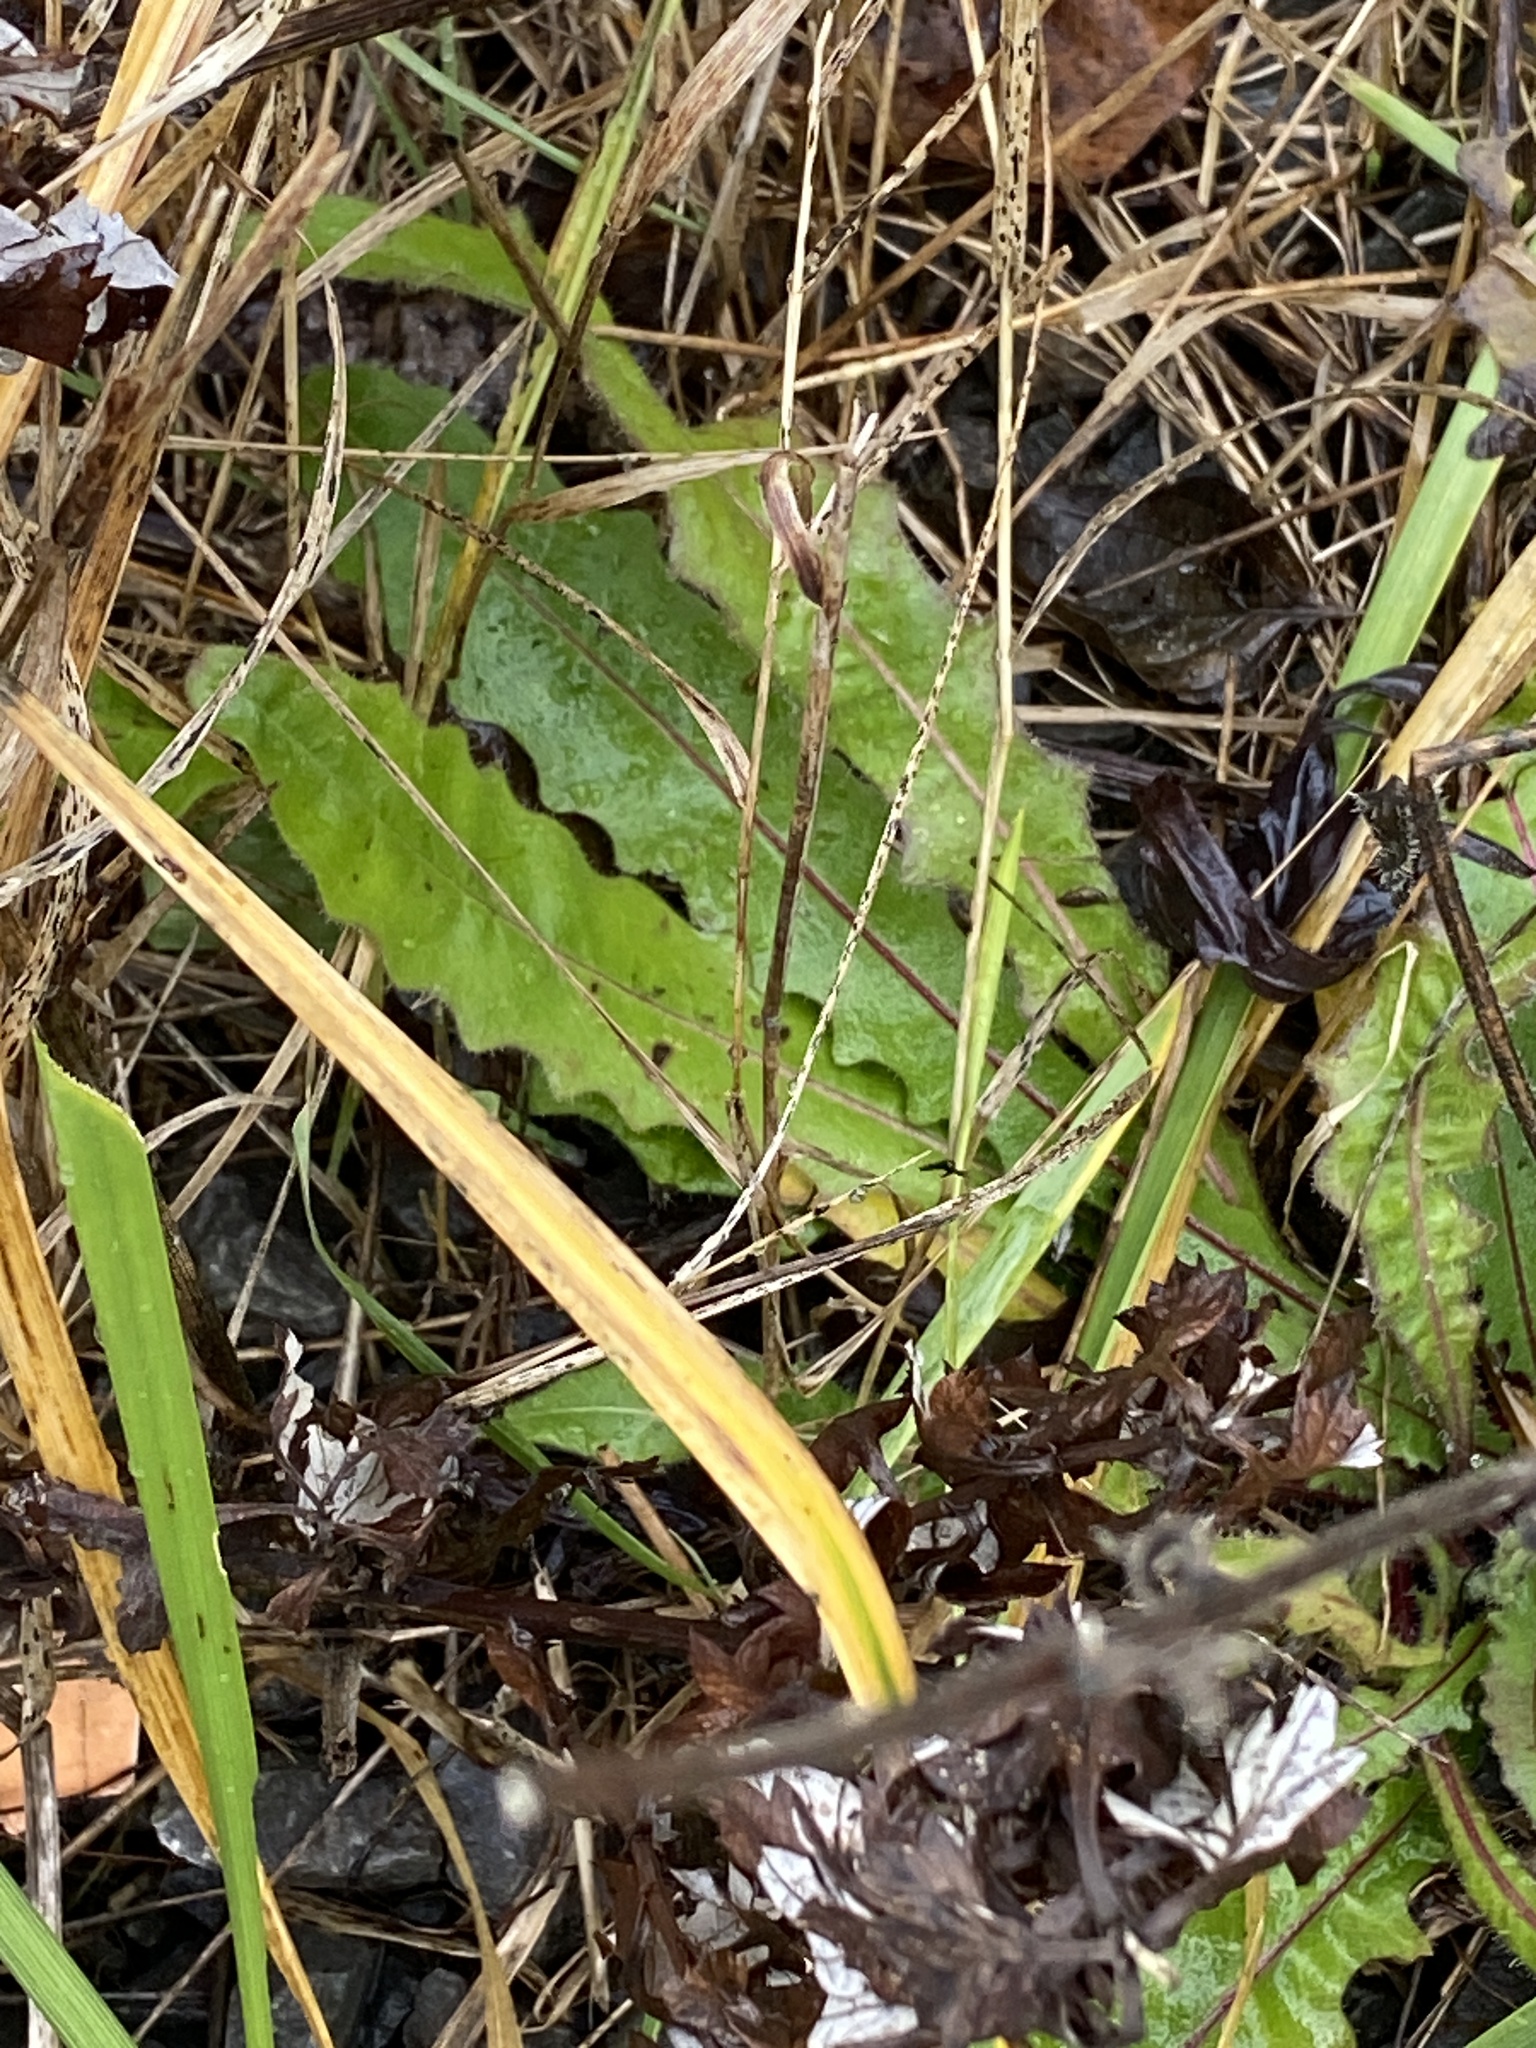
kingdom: Plantae
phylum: Tracheophyta
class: Magnoliopsida
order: Asterales
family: Asteraceae
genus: Picris
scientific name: Picris hieracioides
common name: Hawkweed oxtongue
